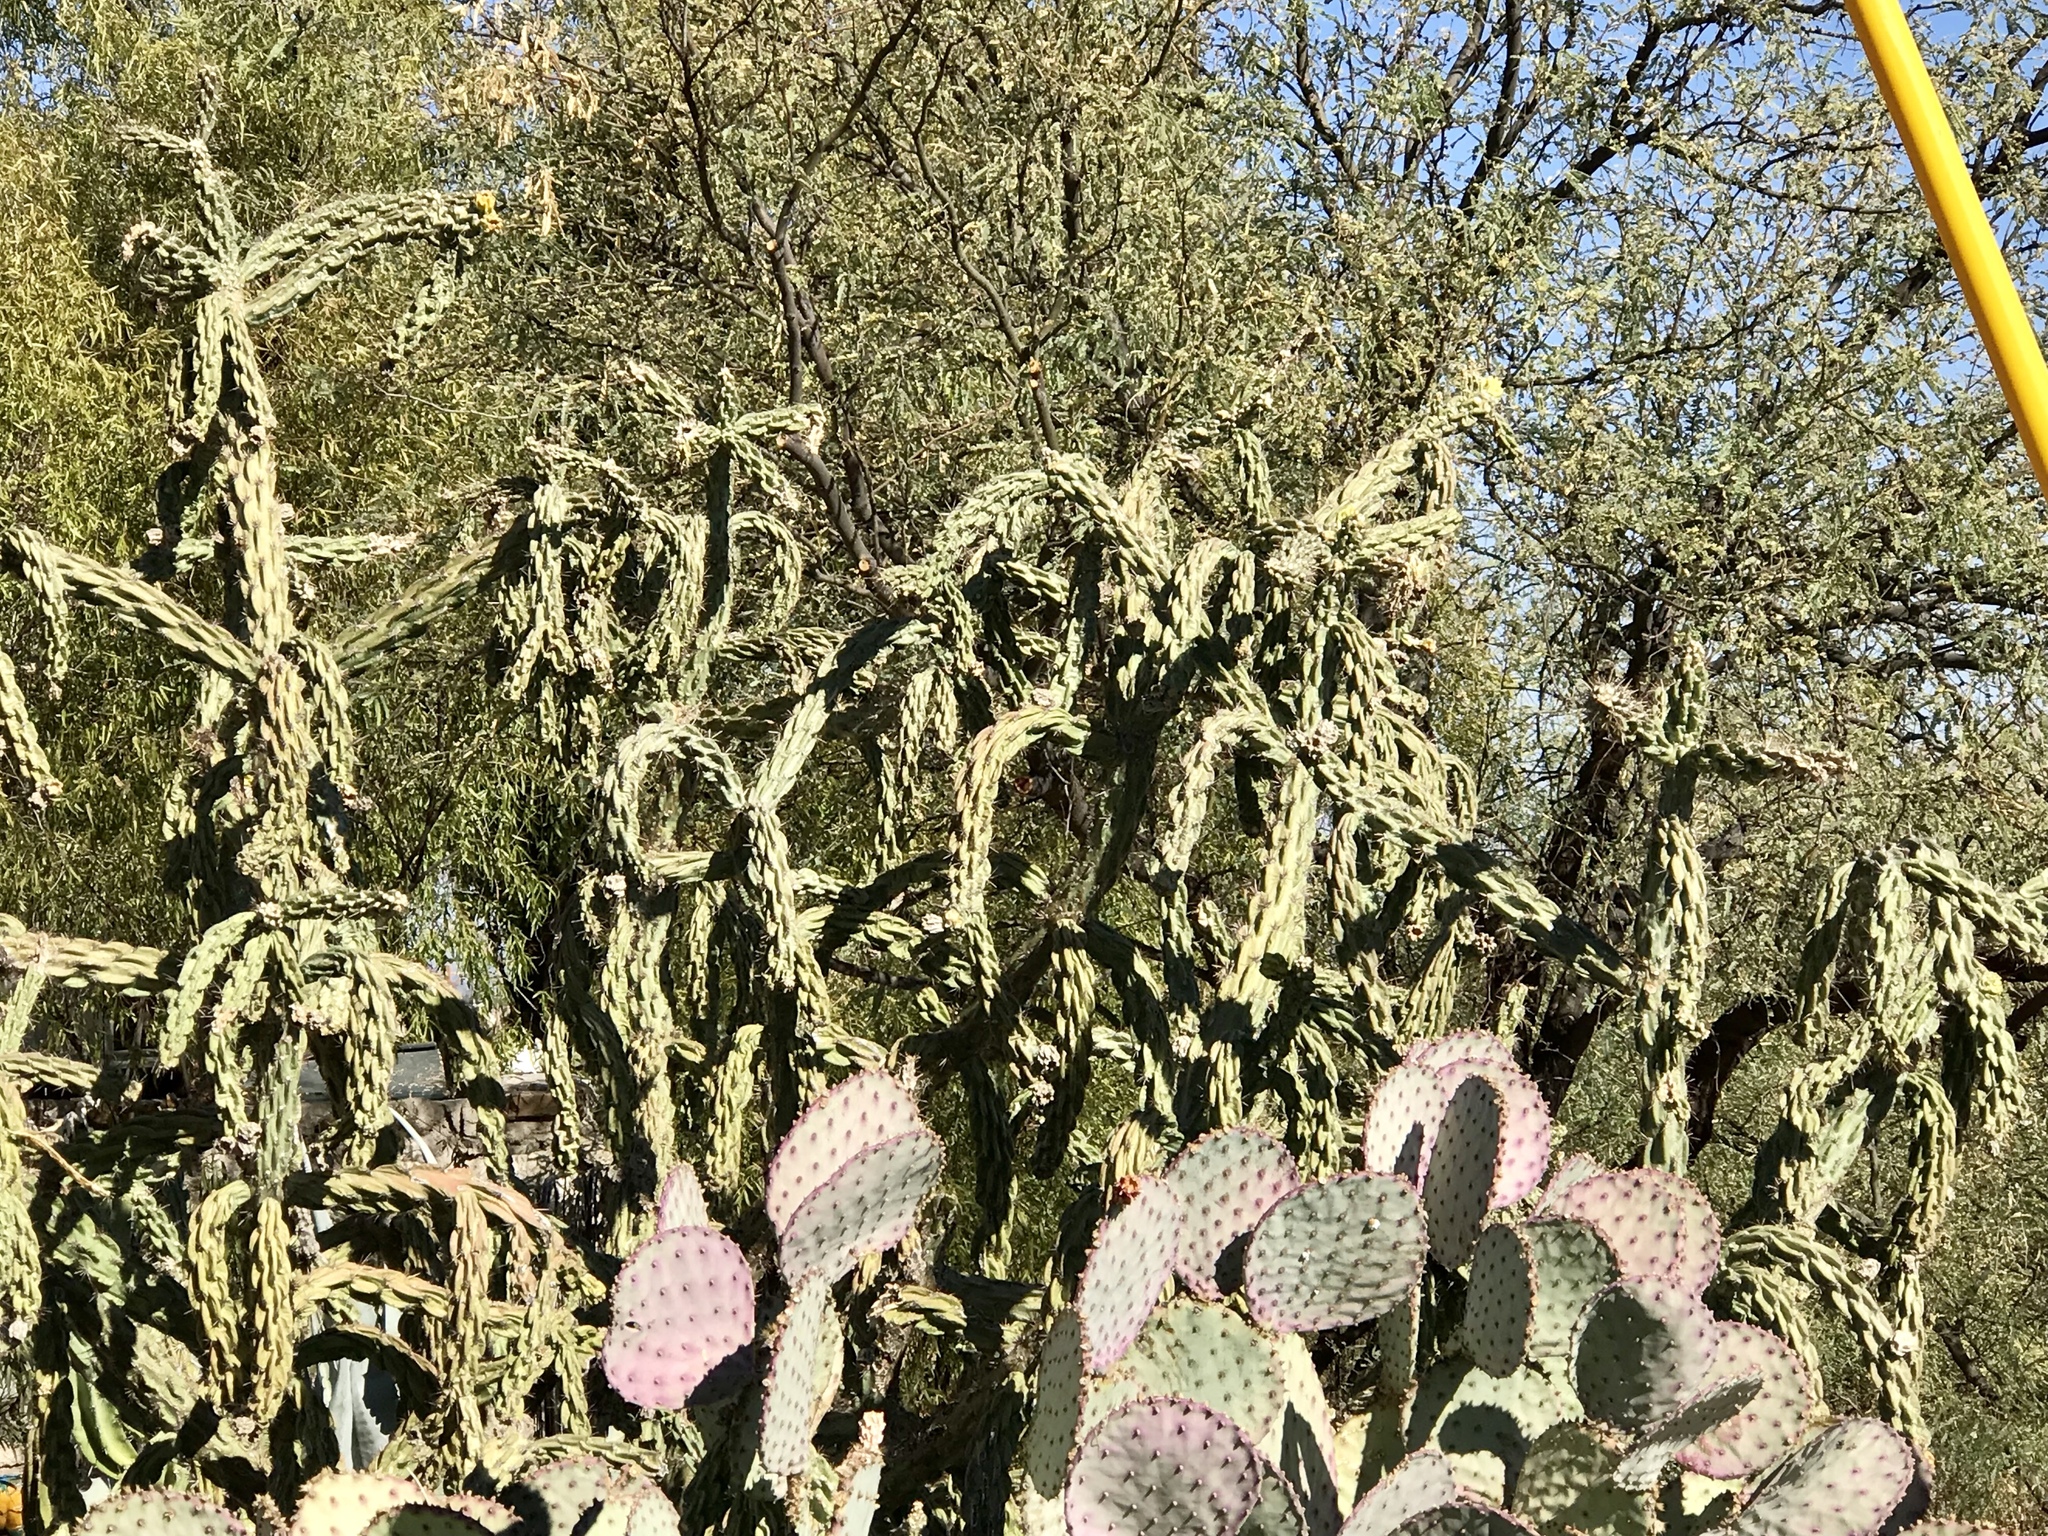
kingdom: Plantae
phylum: Tracheophyta
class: Magnoliopsida
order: Caryophyllales
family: Cactaceae
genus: Cylindropuntia
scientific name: Cylindropuntia fulgida
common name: Jumping cholla
